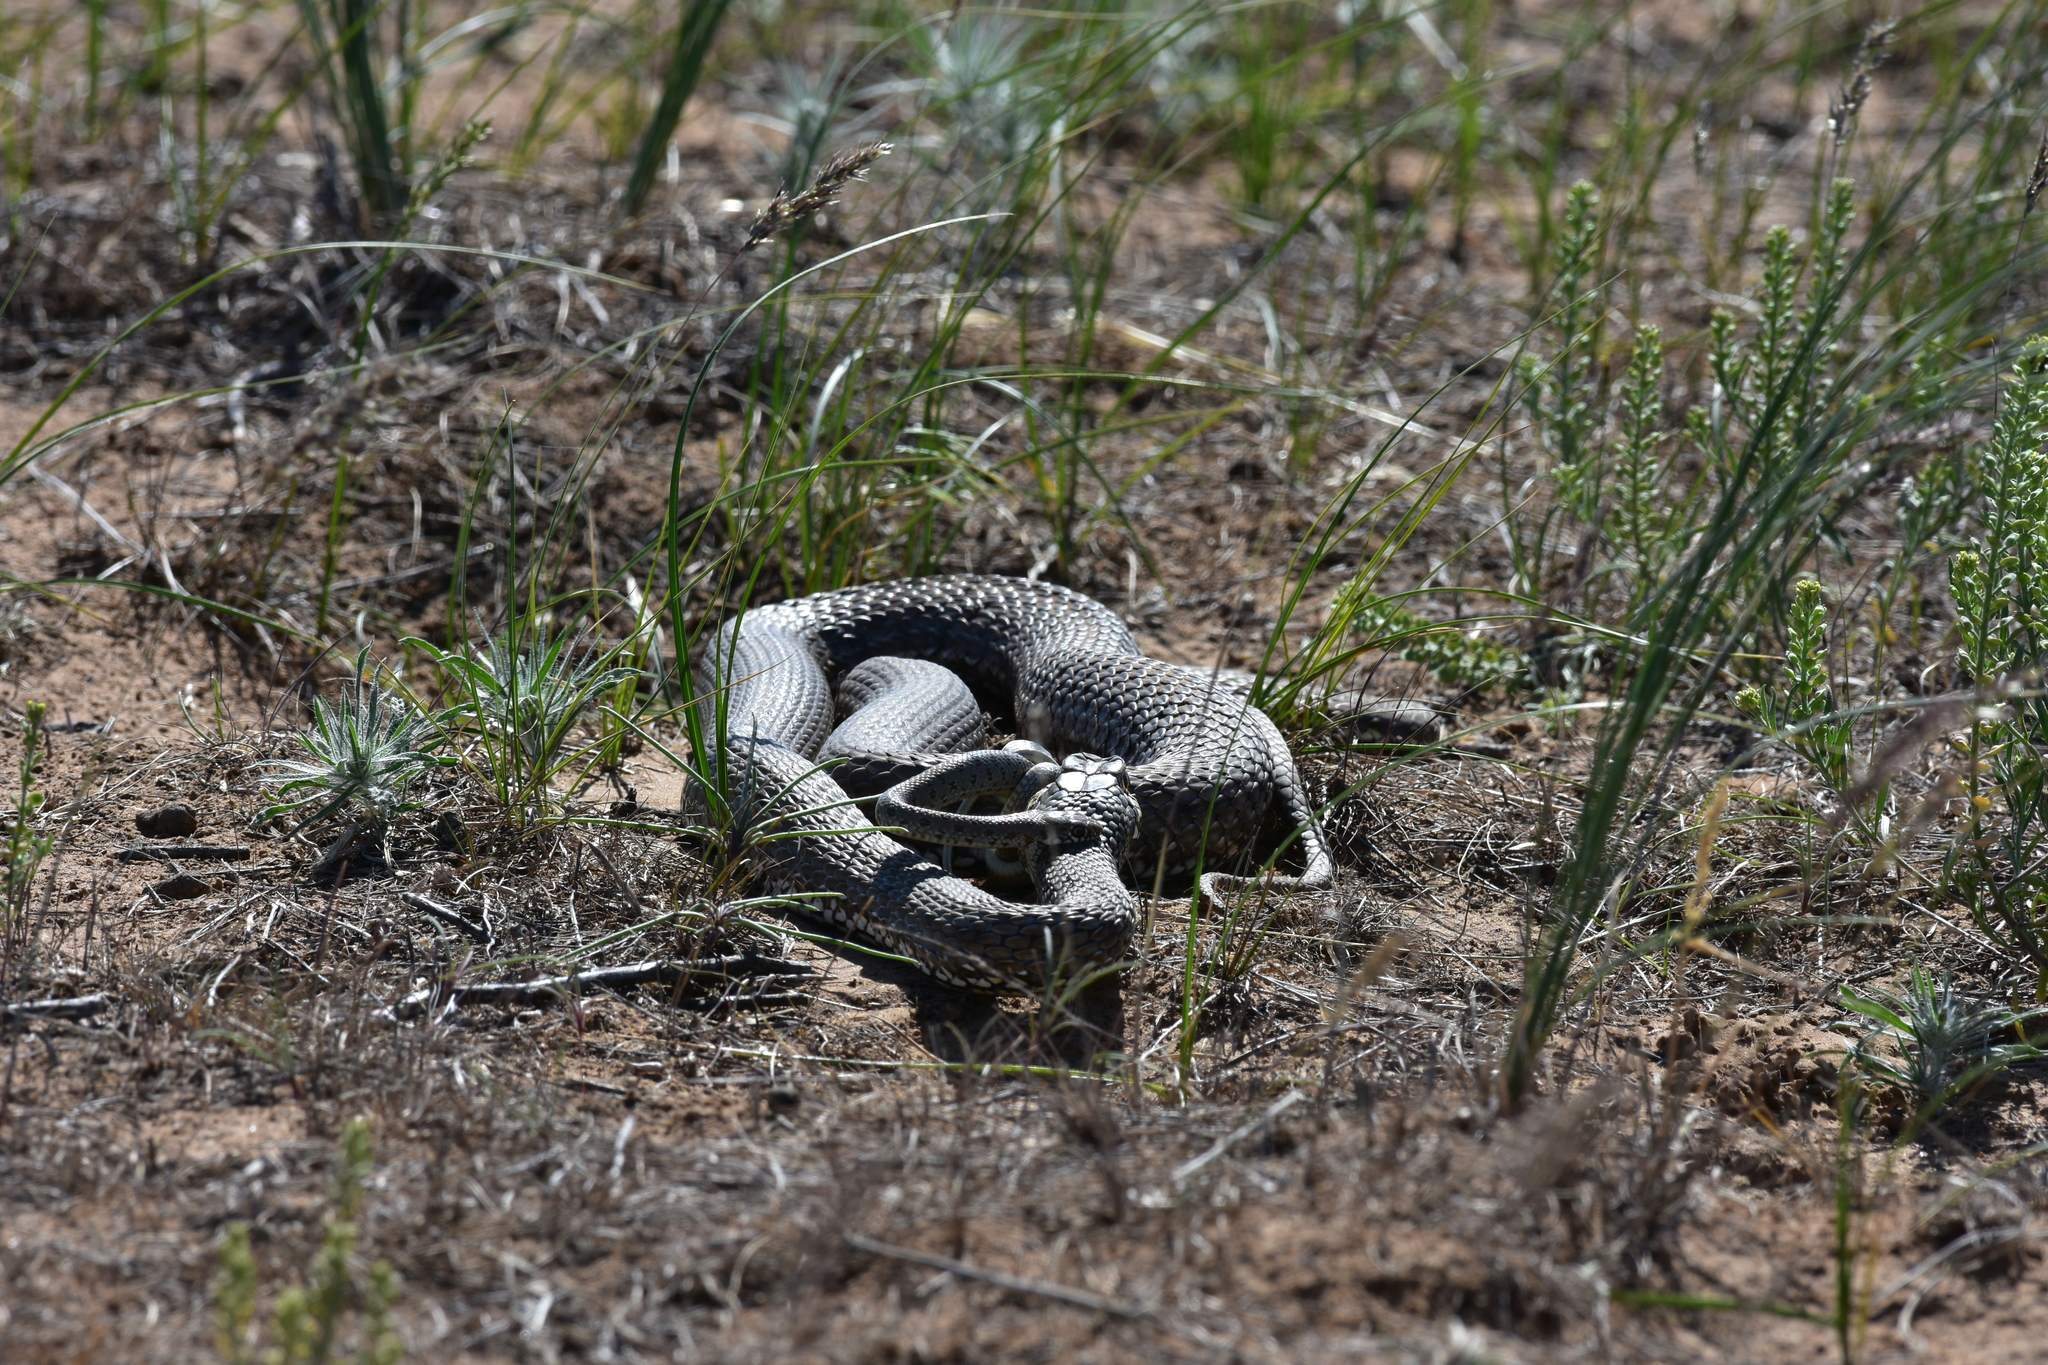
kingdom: Animalia
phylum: Chordata
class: Squamata
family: Psammophiidae
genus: Malpolon
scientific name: Malpolon insignitus
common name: Eastern montpellier snake
